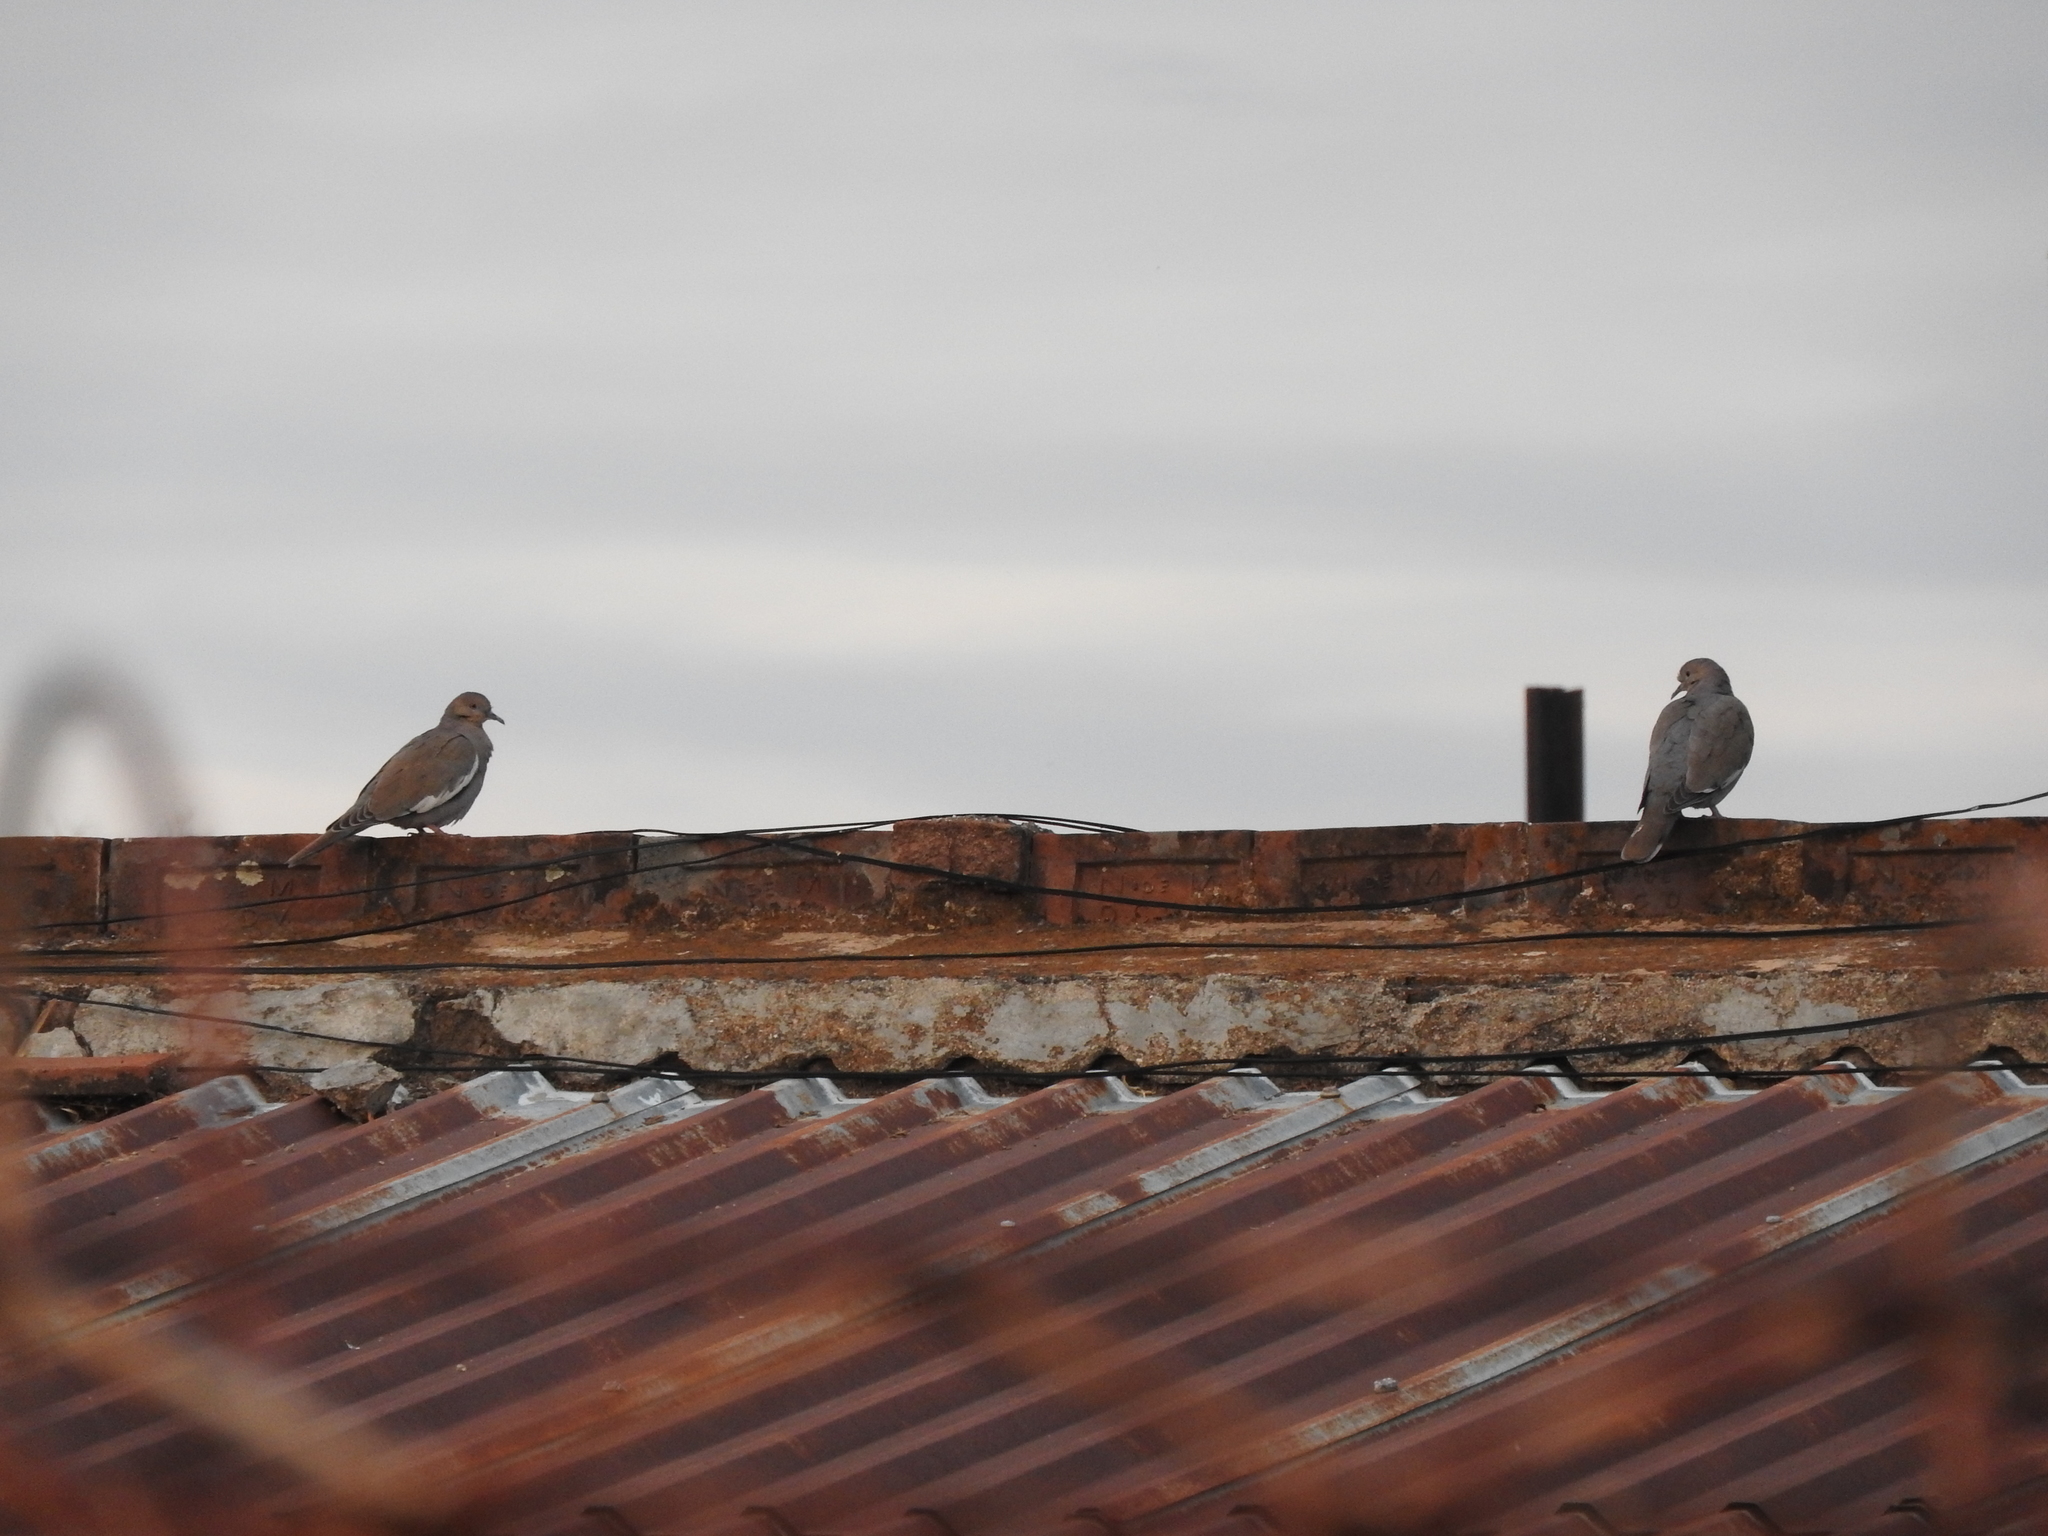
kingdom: Animalia
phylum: Chordata
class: Aves
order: Columbiformes
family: Columbidae
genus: Zenaida
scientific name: Zenaida asiatica
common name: White-winged dove
